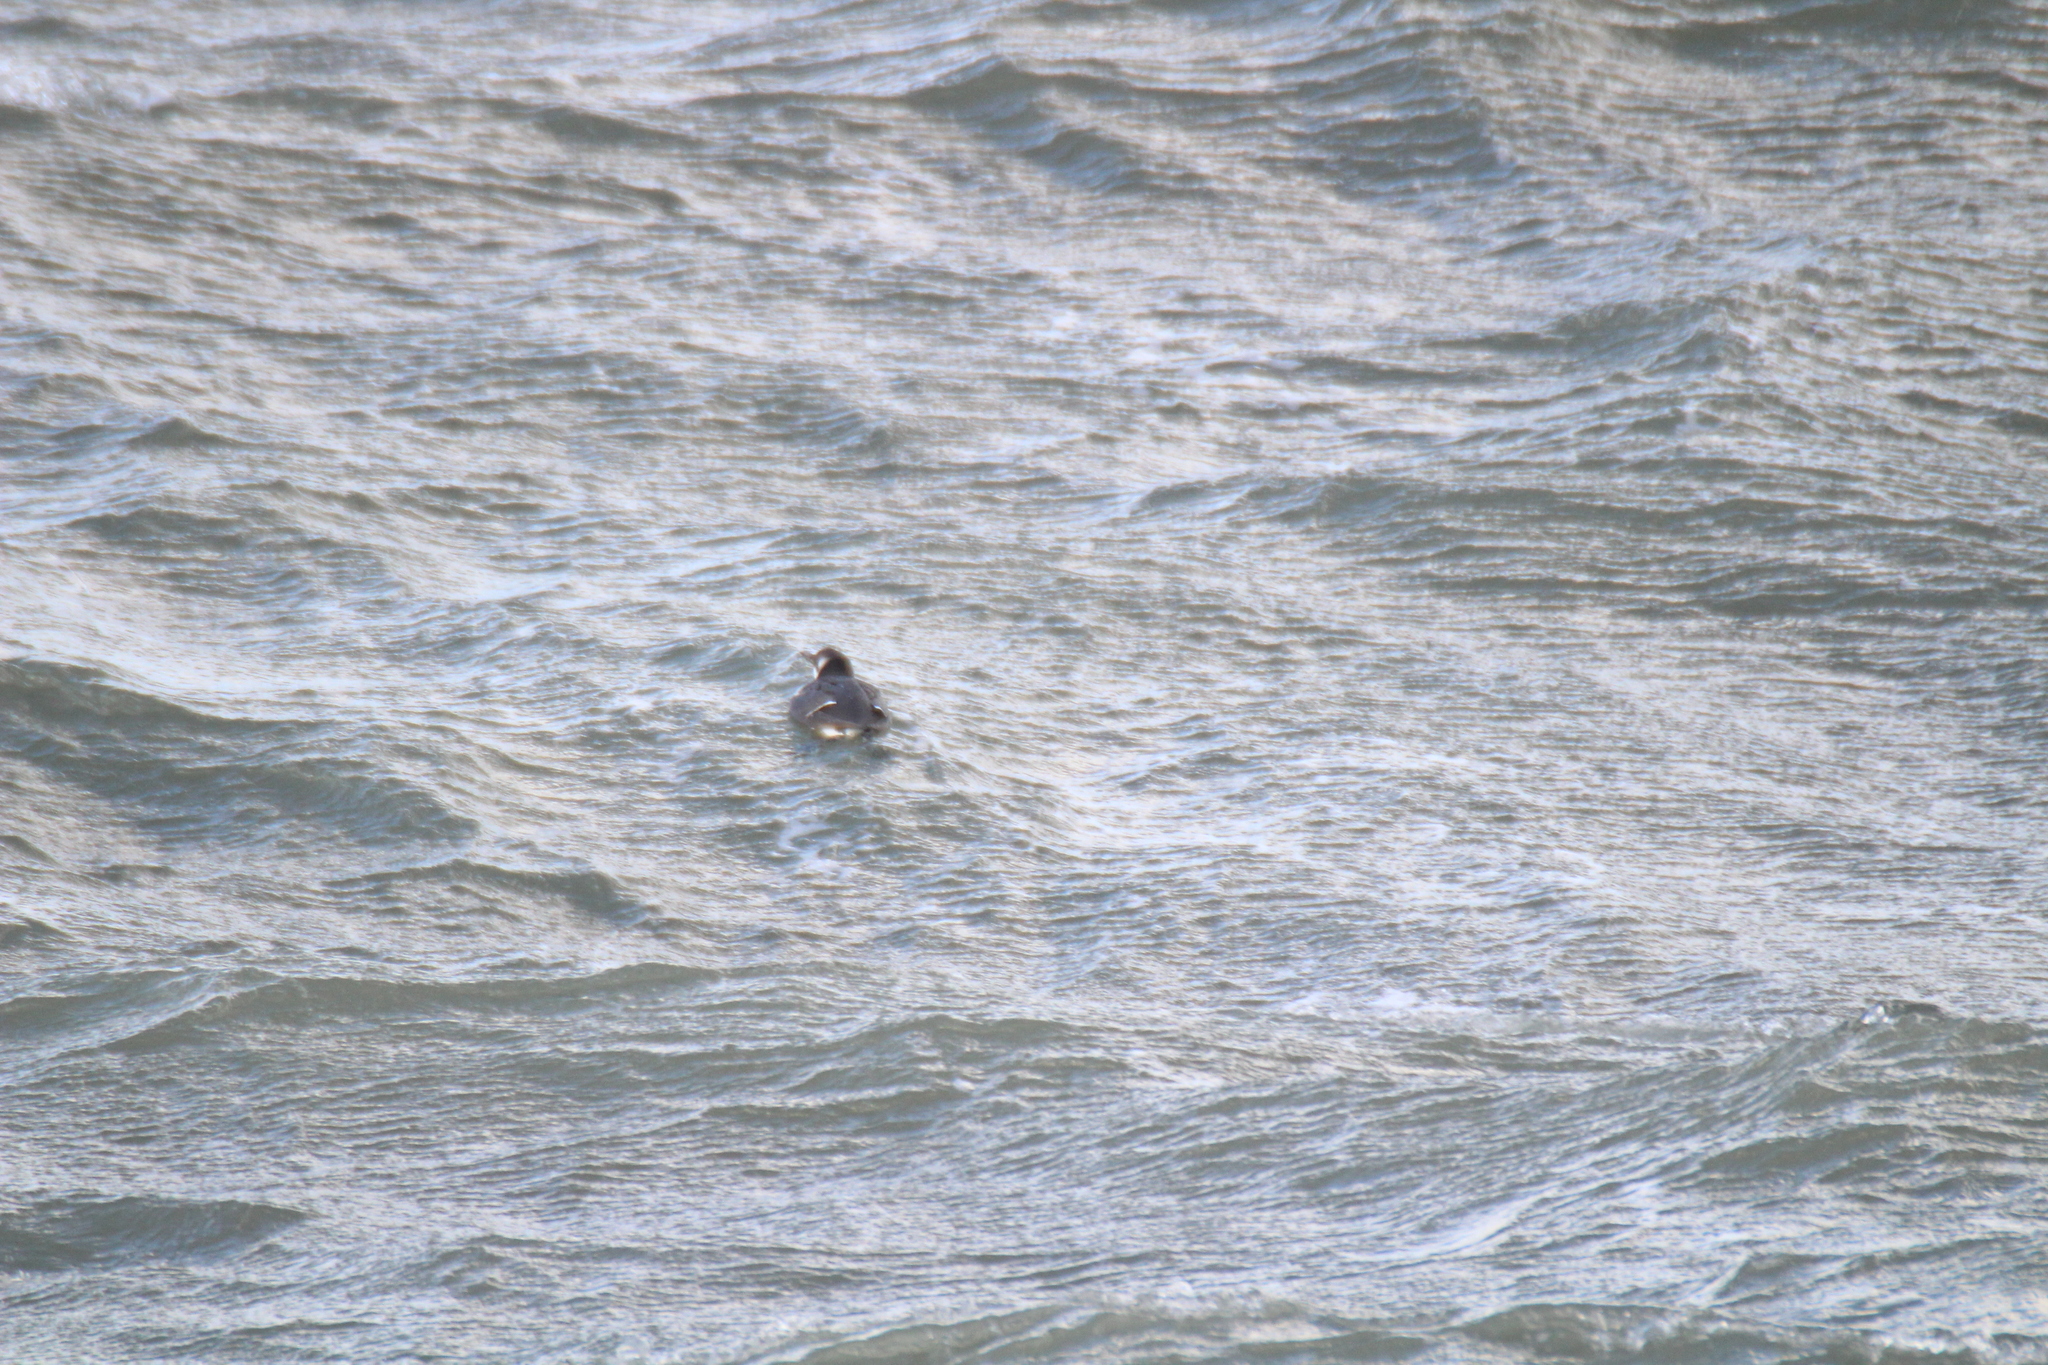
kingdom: Animalia
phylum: Chordata
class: Aves
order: Charadriiformes
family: Alcidae
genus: Uria
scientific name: Uria aalge
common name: Common murre
